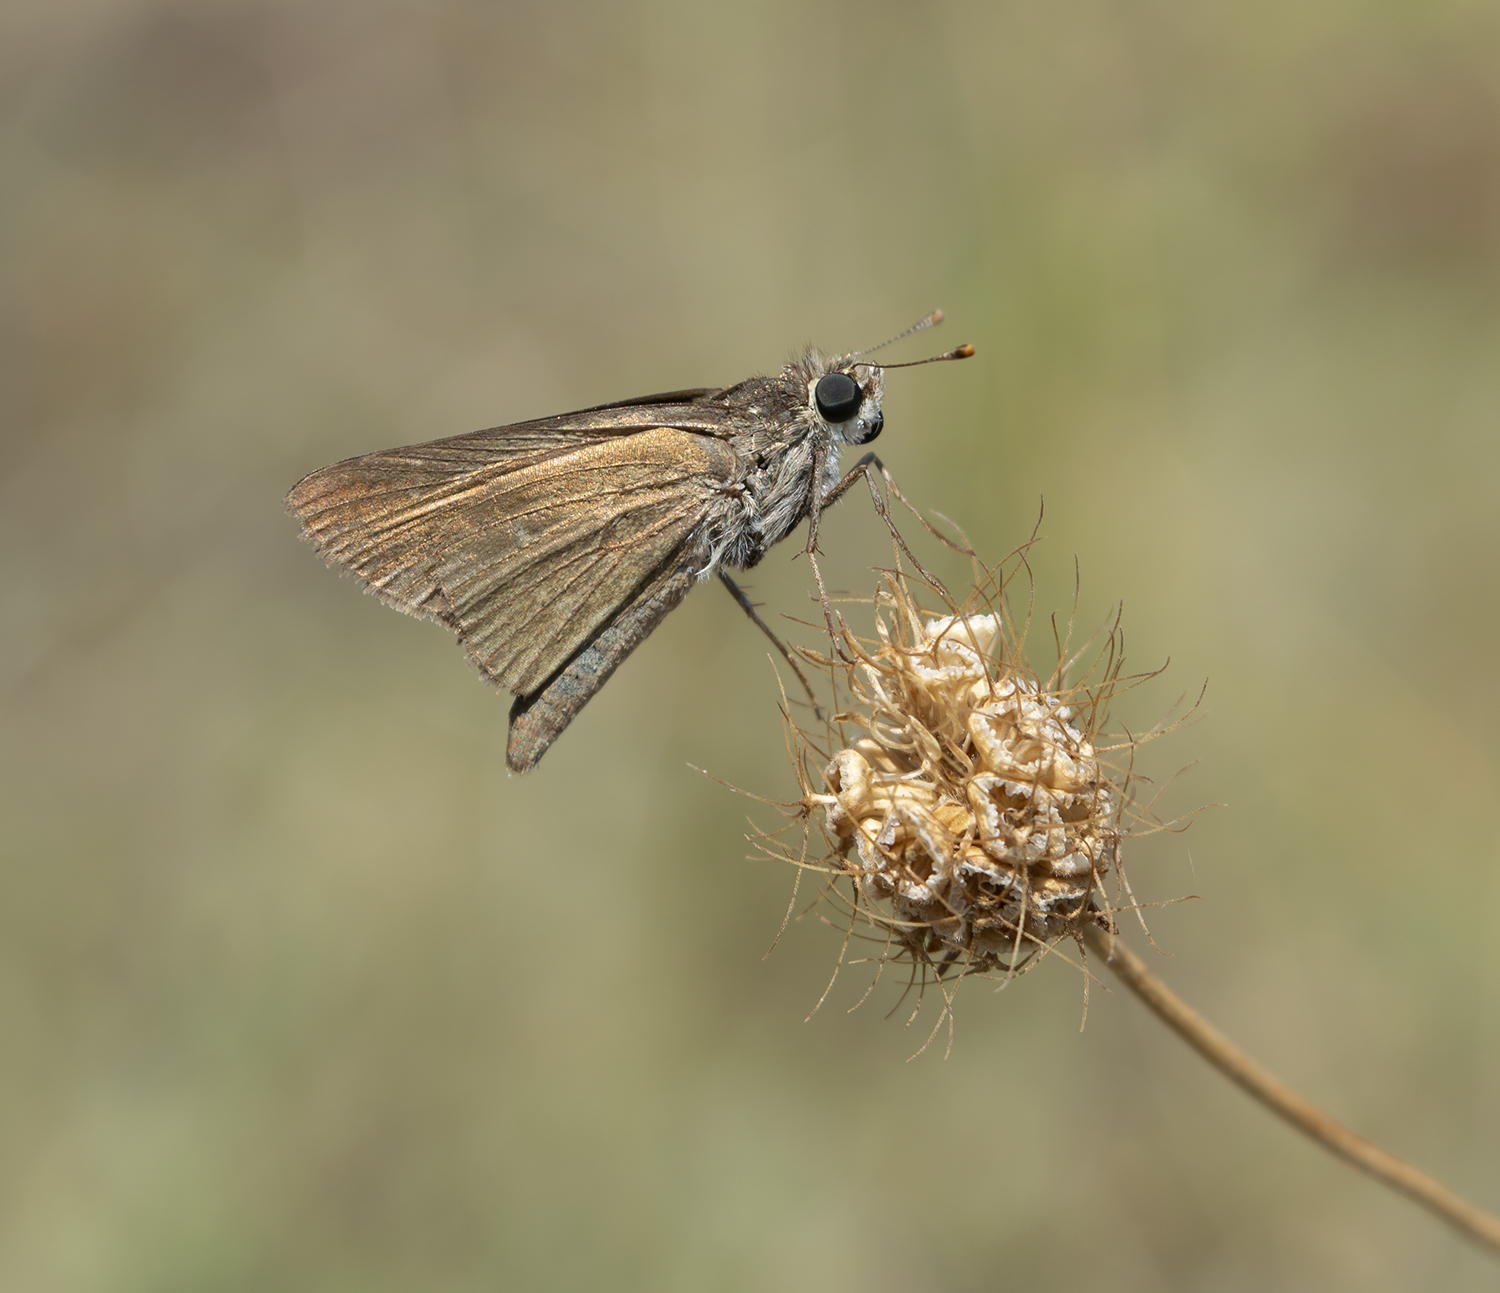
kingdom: Animalia
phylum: Arthropoda
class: Insecta
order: Lepidoptera
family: Hesperiidae
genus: Gegenes
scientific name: Gegenes pumilio
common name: Pigmy skipper
